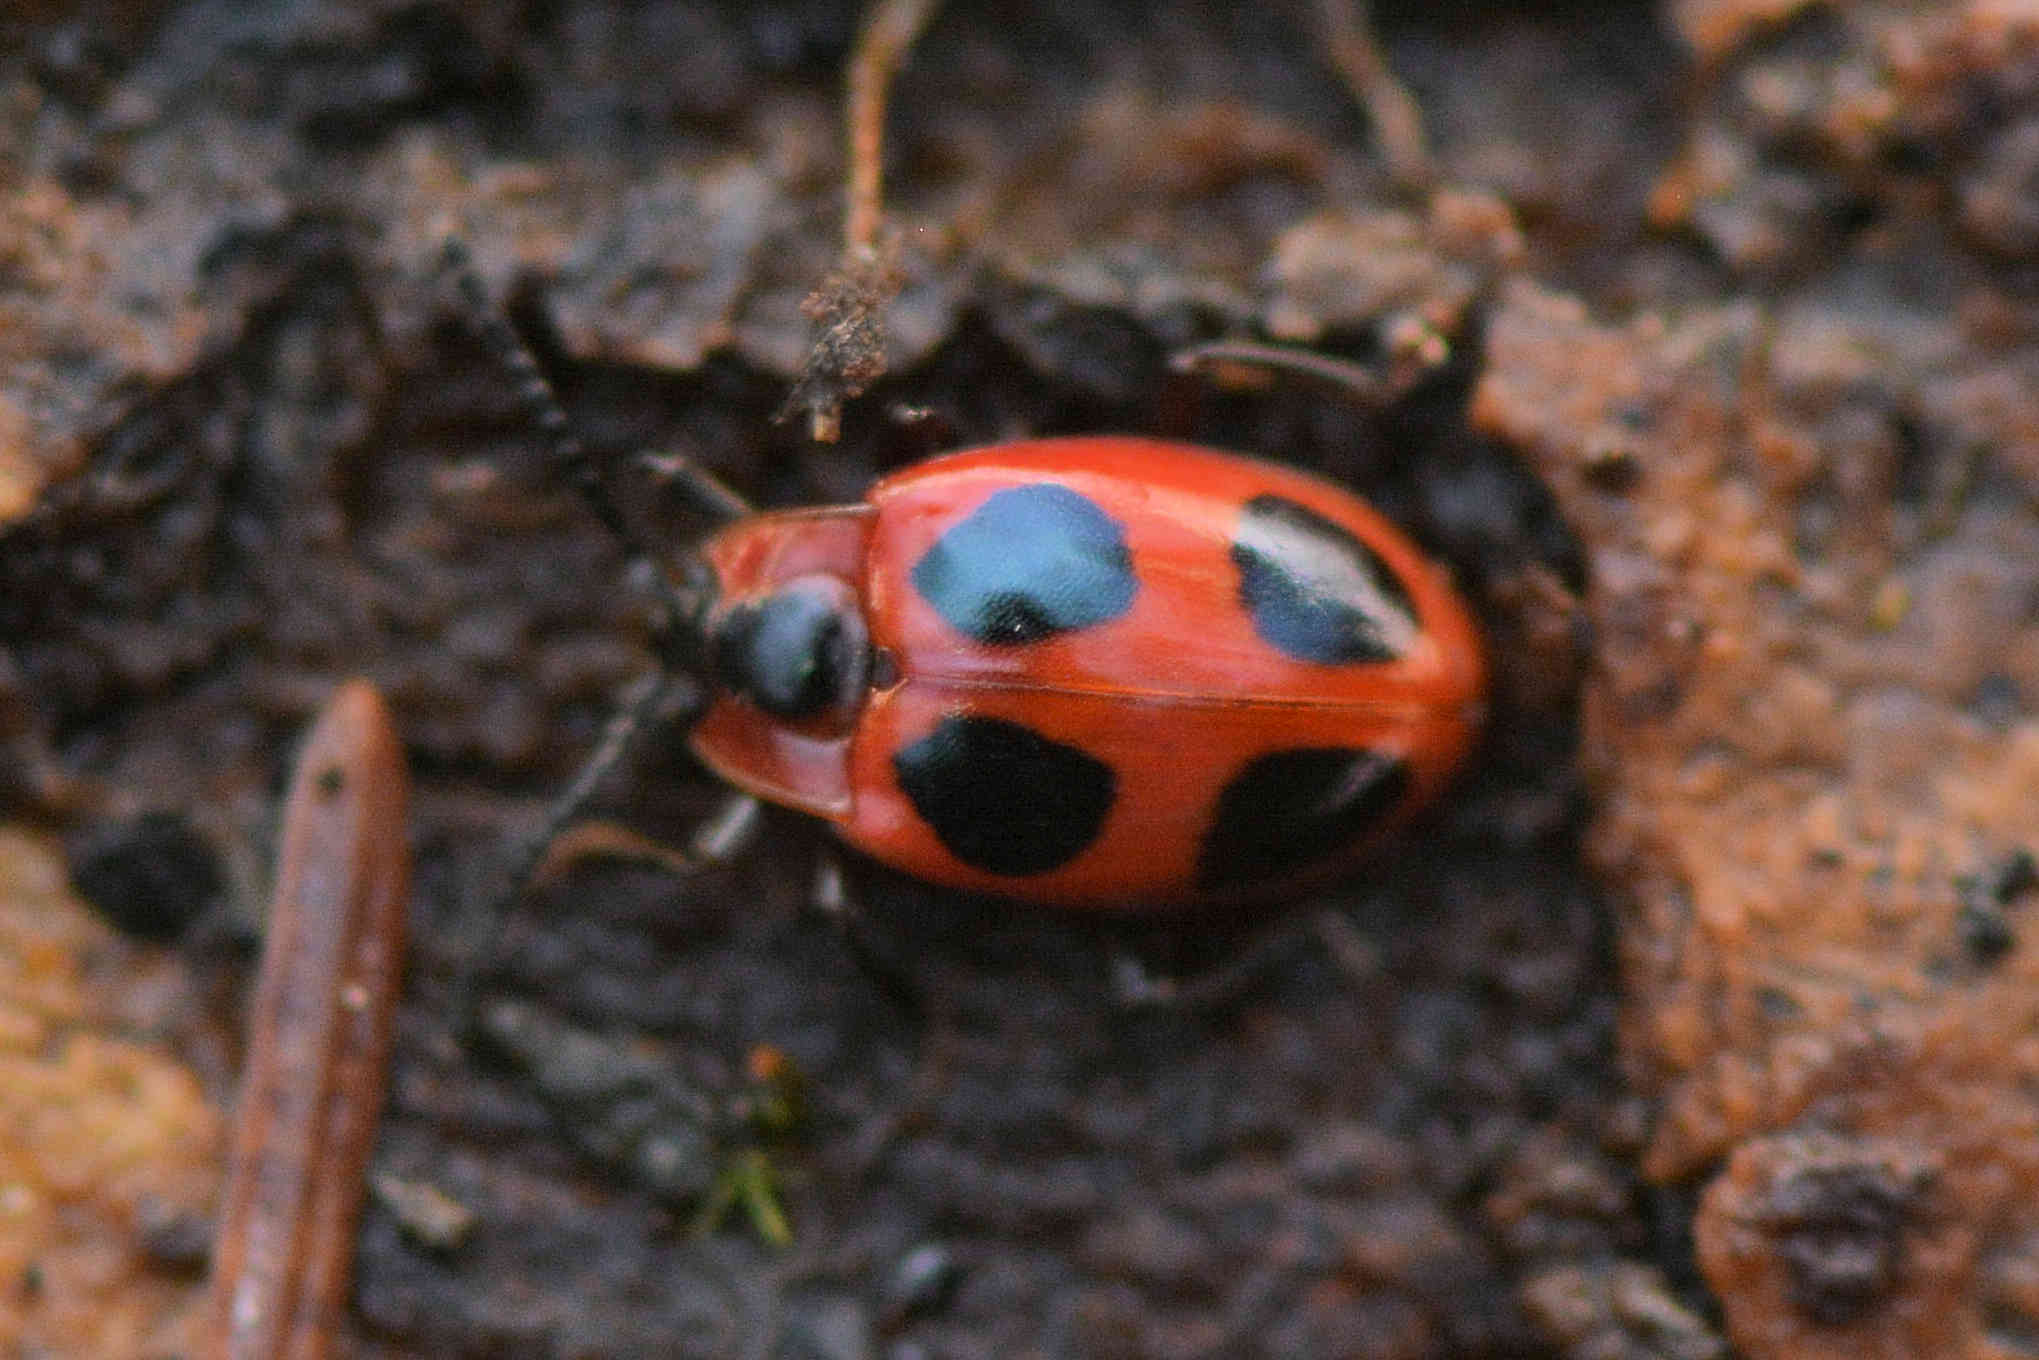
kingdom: Animalia
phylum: Arthropoda
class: Insecta
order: Coleoptera
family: Endomychidae
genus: Endomychus
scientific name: Endomychus coccineus
